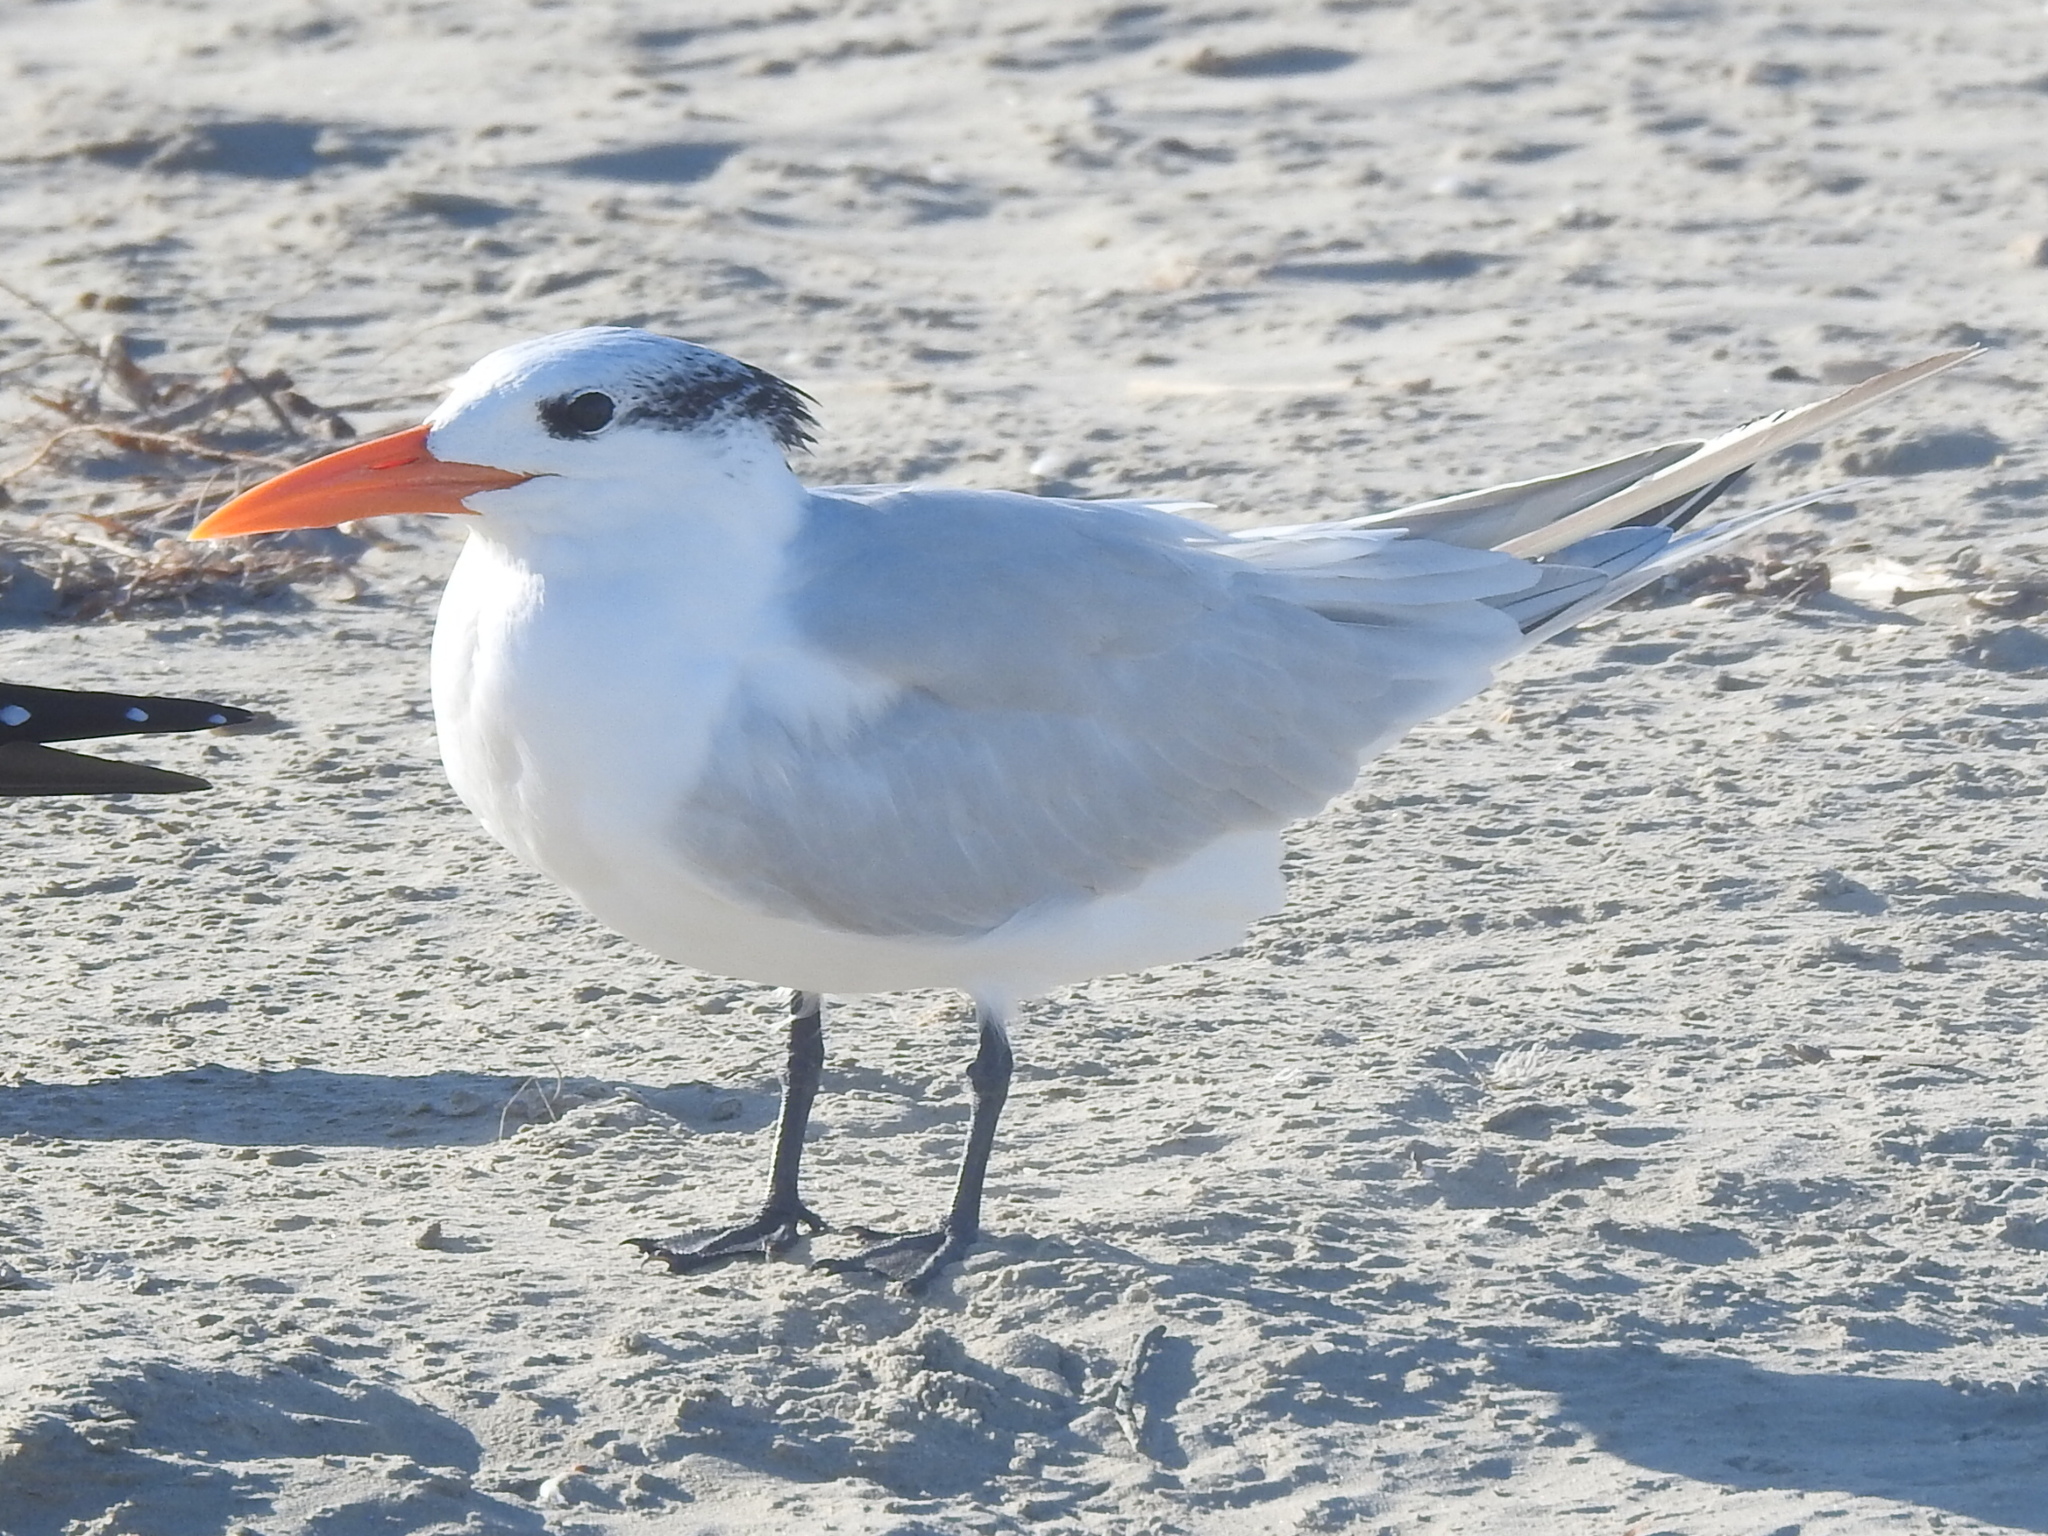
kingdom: Animalia
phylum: Chordata
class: Aves
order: Charadriiformes
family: Laridae
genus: Thalasseus
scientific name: Thalasseus maximus
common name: Royal tern
